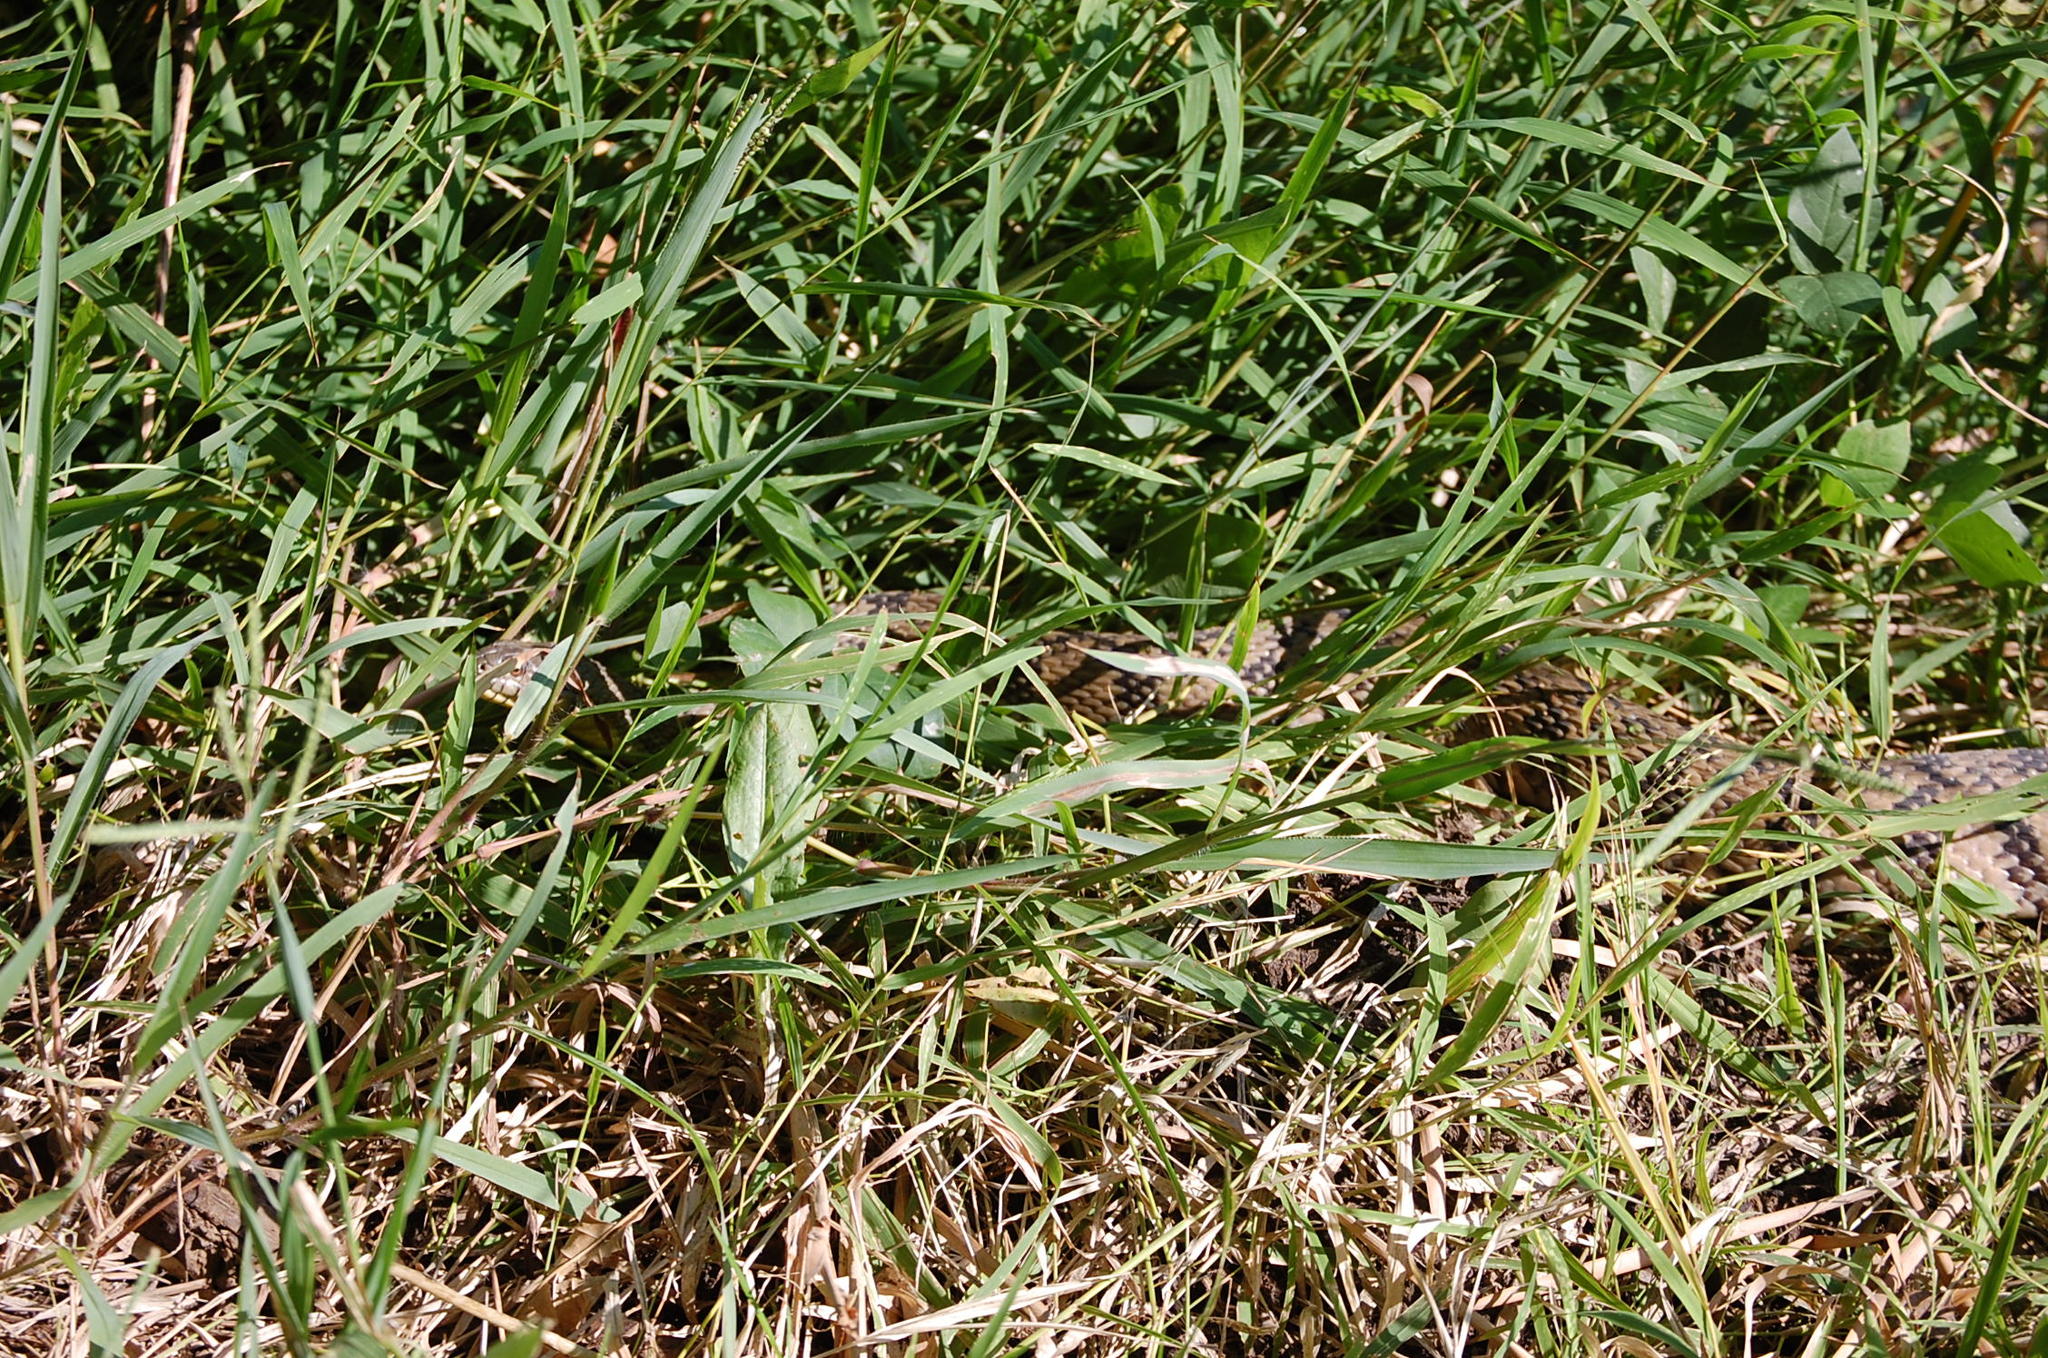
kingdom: Animalia
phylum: Chordata
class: Squamata
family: Colubridae
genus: Nerodia
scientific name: Nerodia rhombifer
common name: Diamondback water snake
